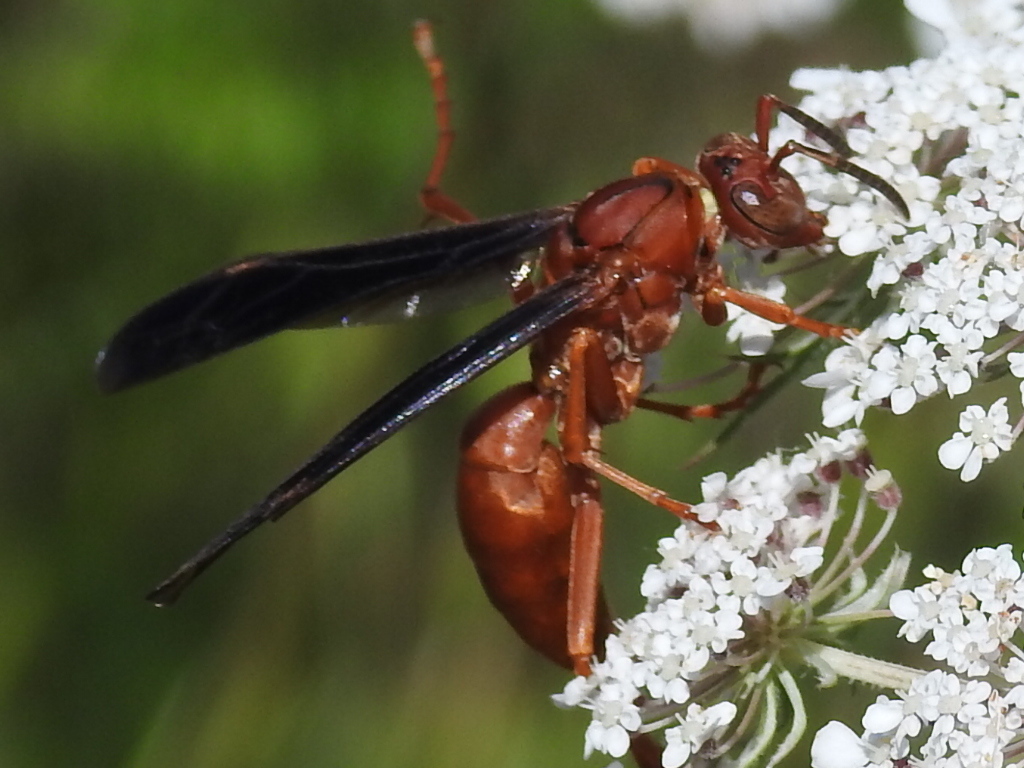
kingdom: Animalia
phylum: Arthropoda
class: Insecta
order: Hymenoptera
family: Eumenidae
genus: Polistes
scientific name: Polistes
